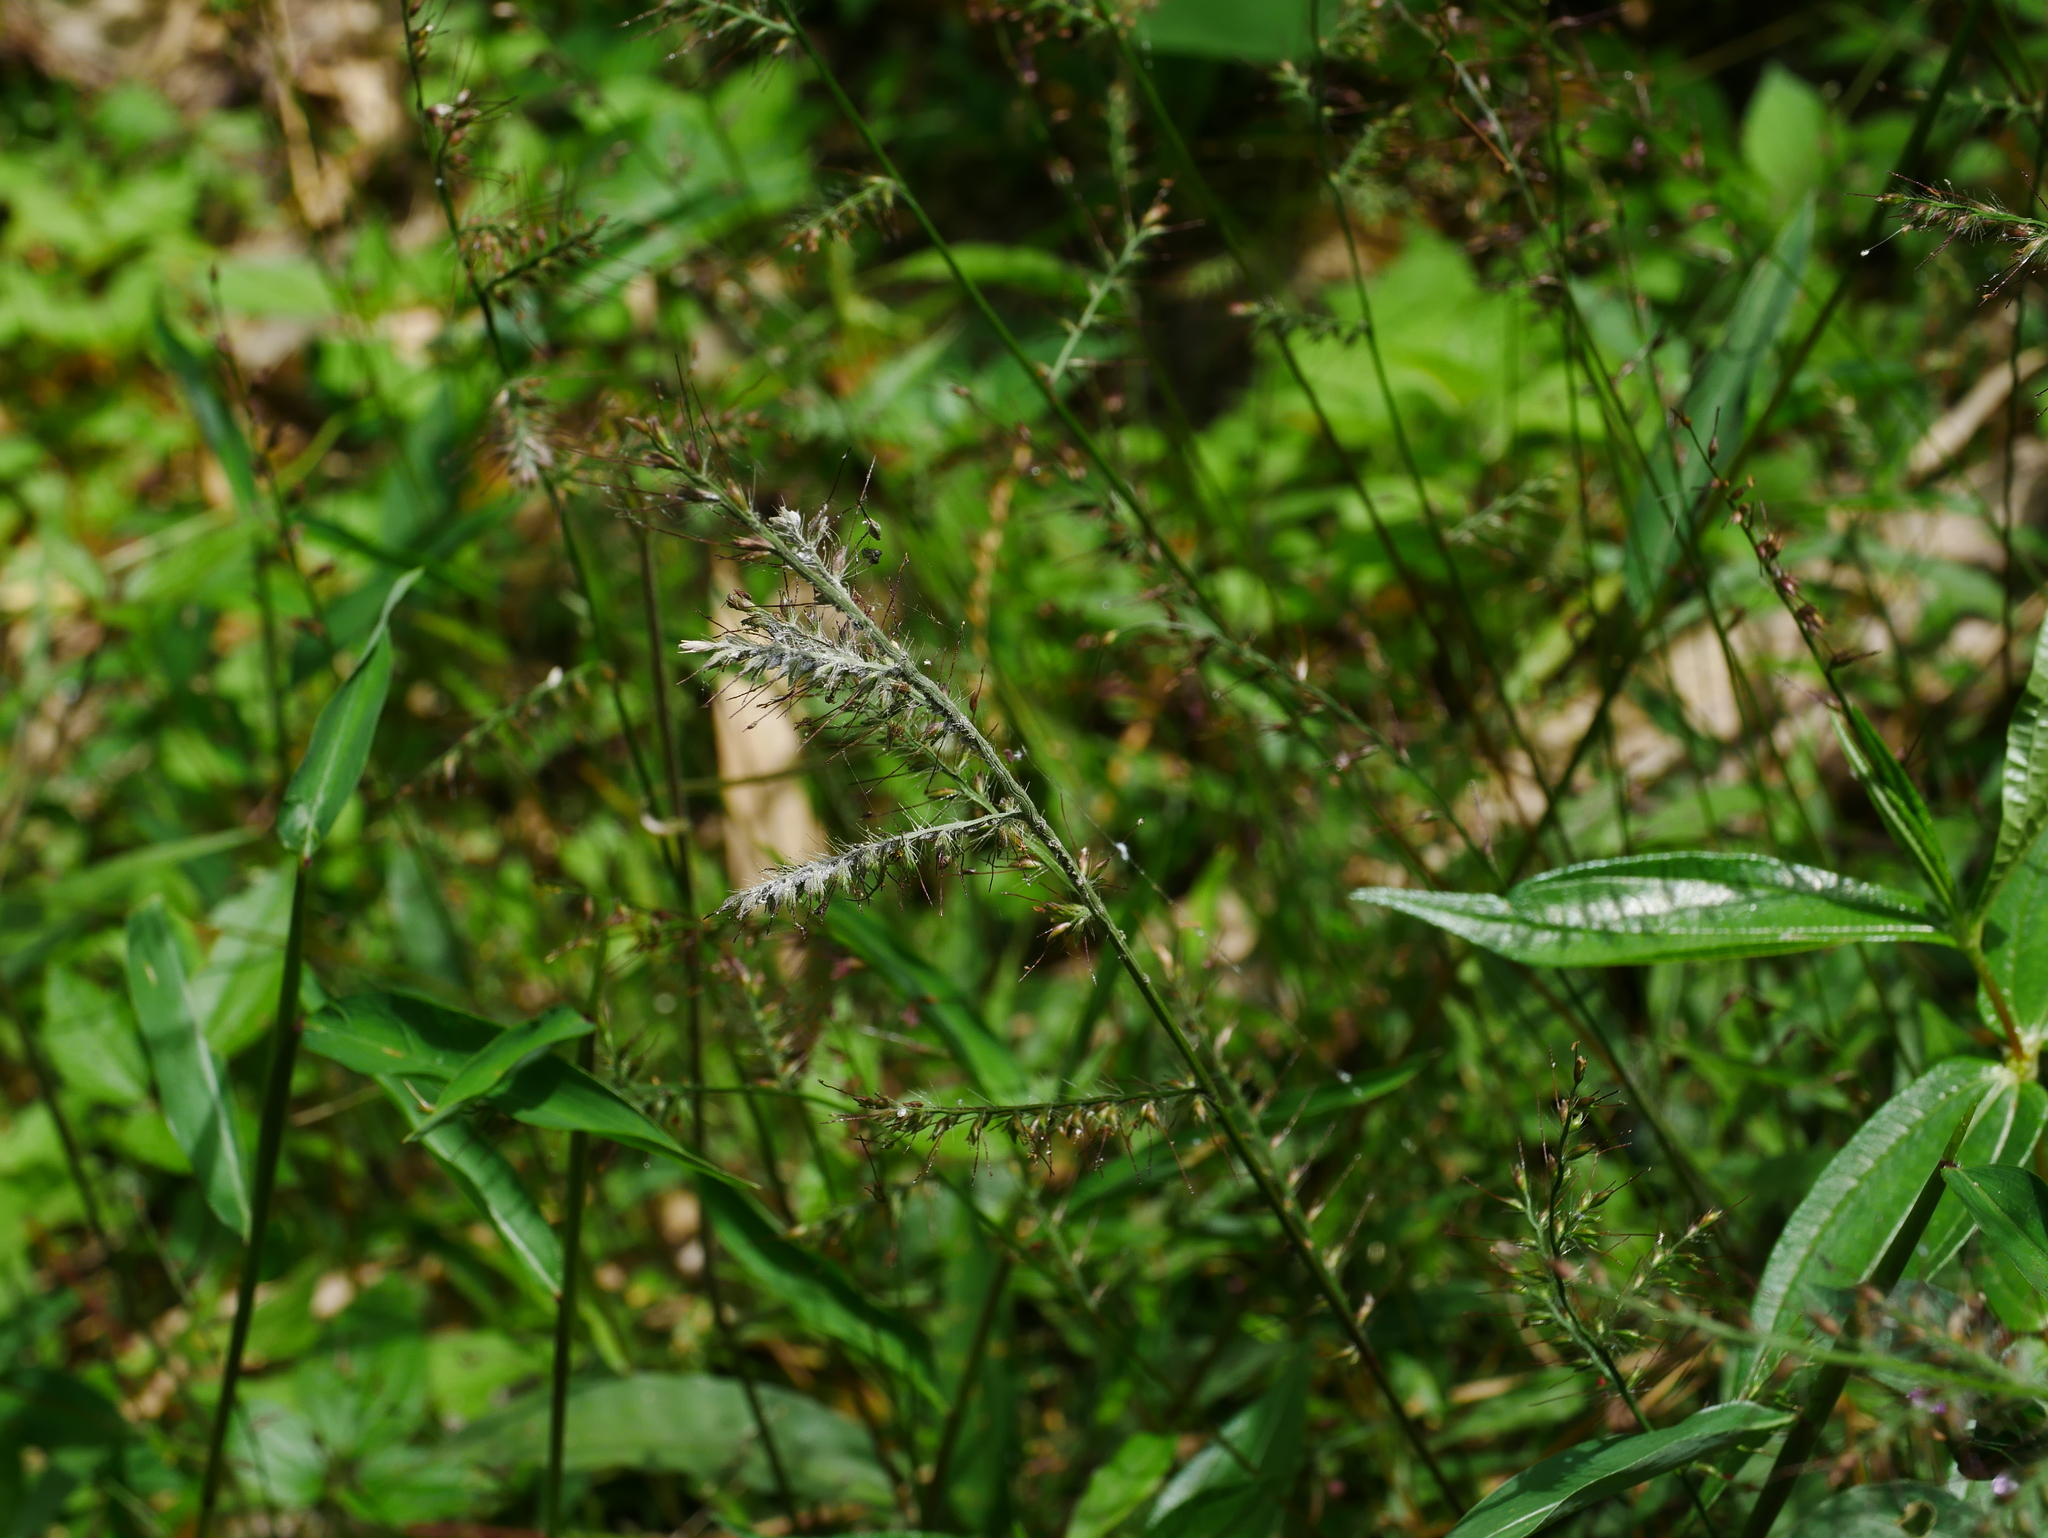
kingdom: Plantae
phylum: Tracheophyta
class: Liliopsida
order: Poales
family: Poaceae
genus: Oplismenus
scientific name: Oplismenus compositus
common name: Running mountain grass
